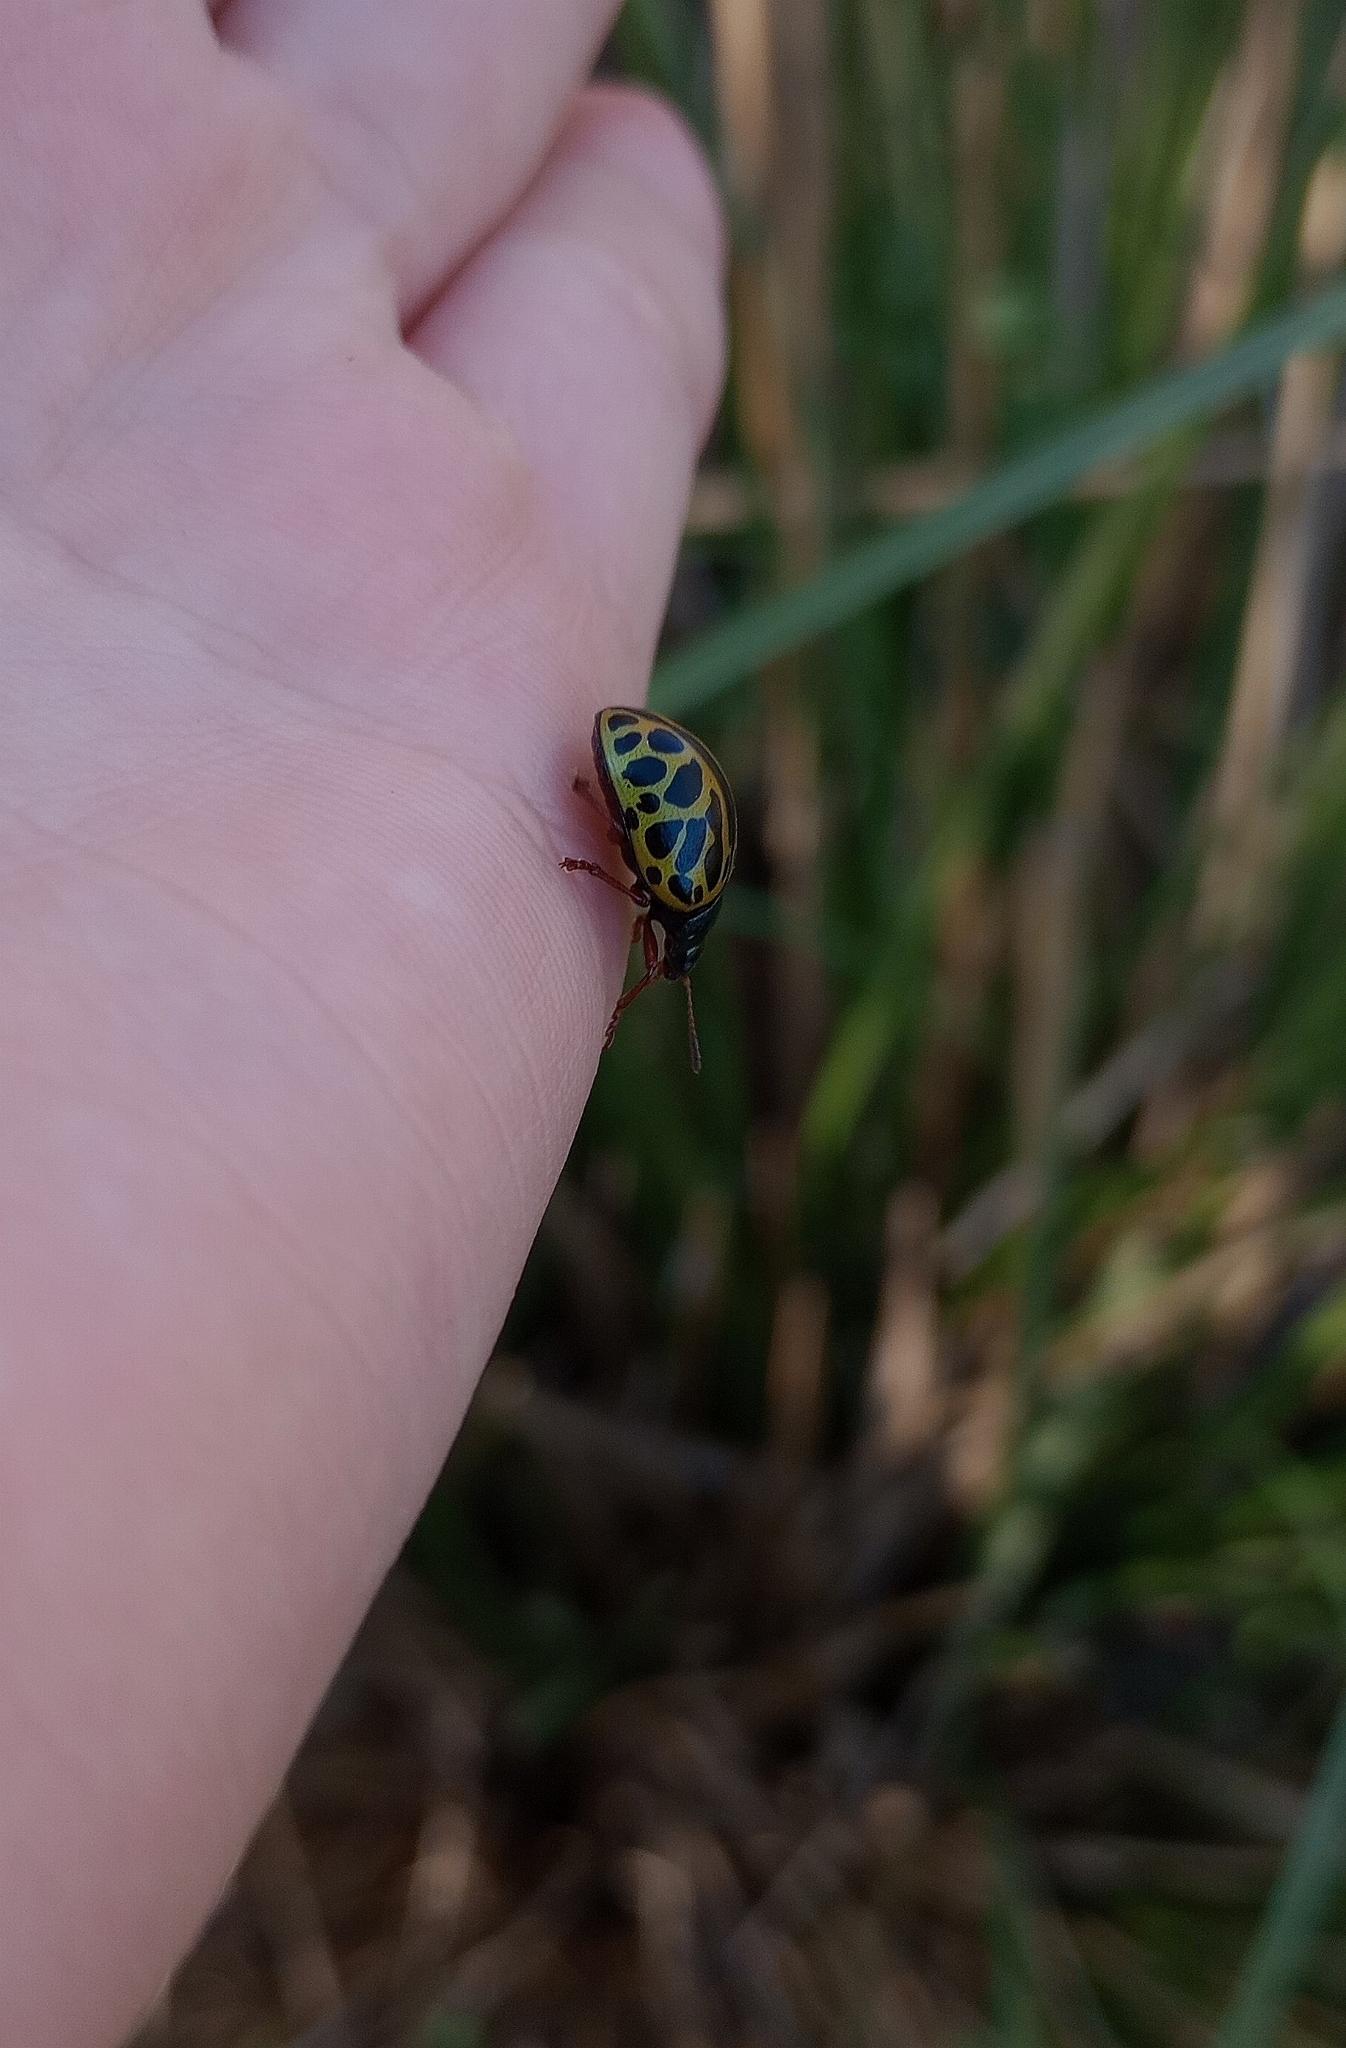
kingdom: Animalia
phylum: Arthropoda
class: Insecta
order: Coleoptera
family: Chrysomelidae
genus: Calligrapha
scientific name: Calligrapha polyspila
